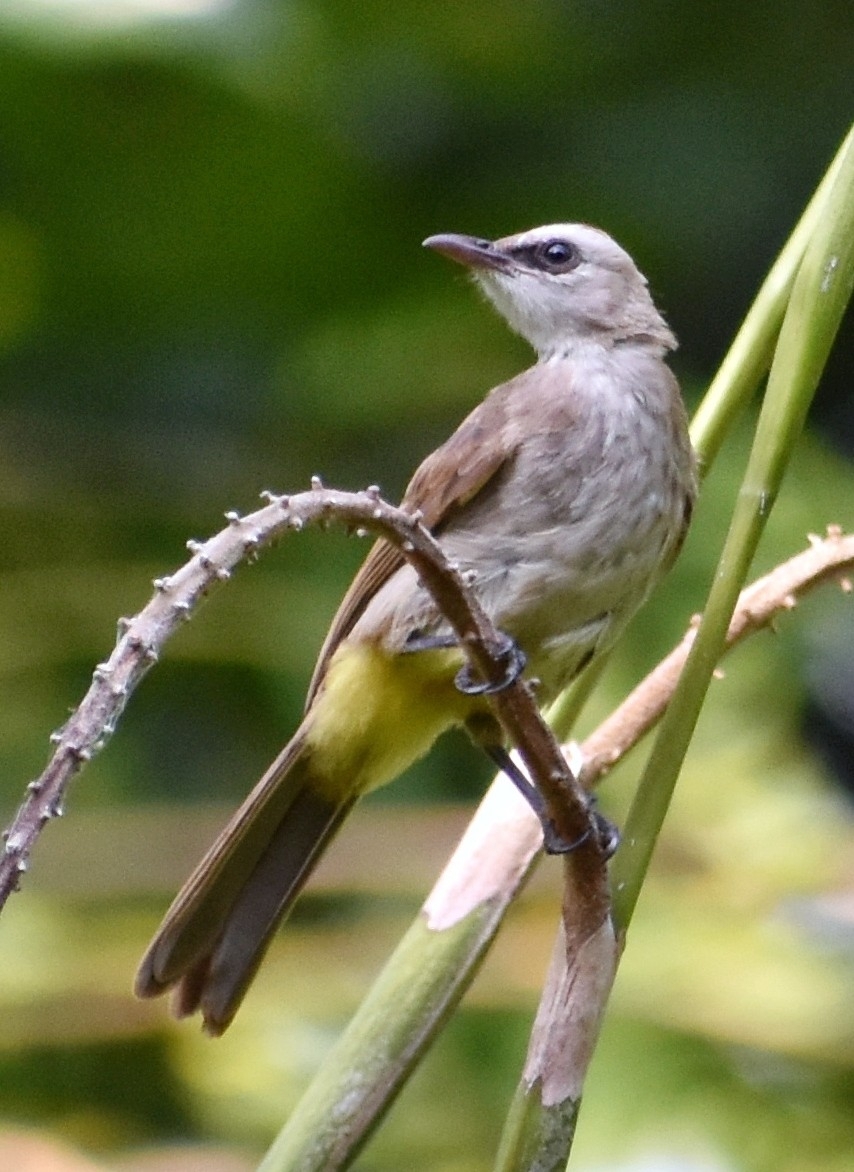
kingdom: Animalia
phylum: Chordata
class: Aves
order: Passeriformes
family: Pycnonotidae
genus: Pycnonotus
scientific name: Pycnonotus goiavier
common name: Yellow-vented bulbul
